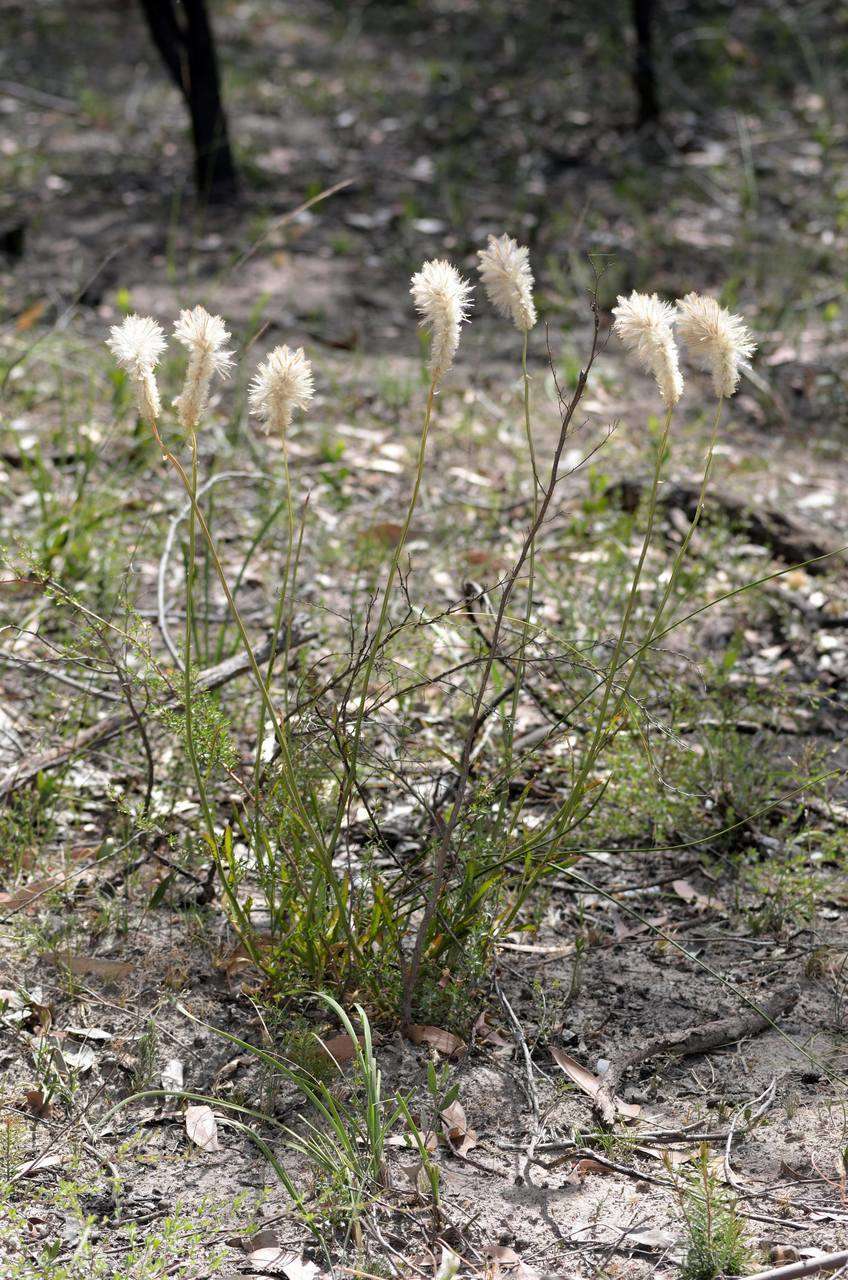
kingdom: Plantae
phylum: Tracheophyta
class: Magnoliopsida
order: Caryophyllales
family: Amaranthaceae
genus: Ptilotus
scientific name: Ptilotus macrocephalus
